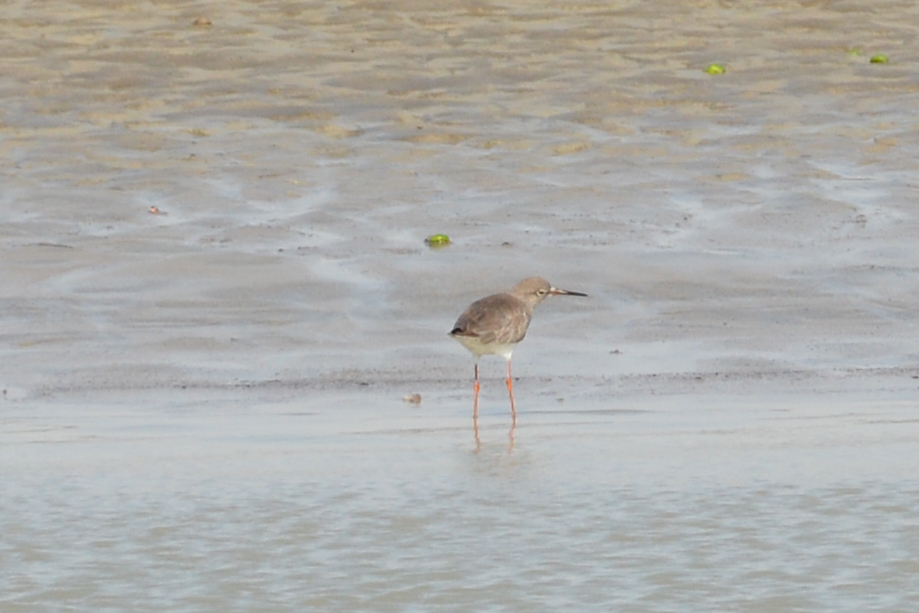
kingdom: Animalia
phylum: Chordata
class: Aves
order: Charadriiformes
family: Scolopacidae
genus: Tringa
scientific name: Tringa totanus
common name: Common redshank
